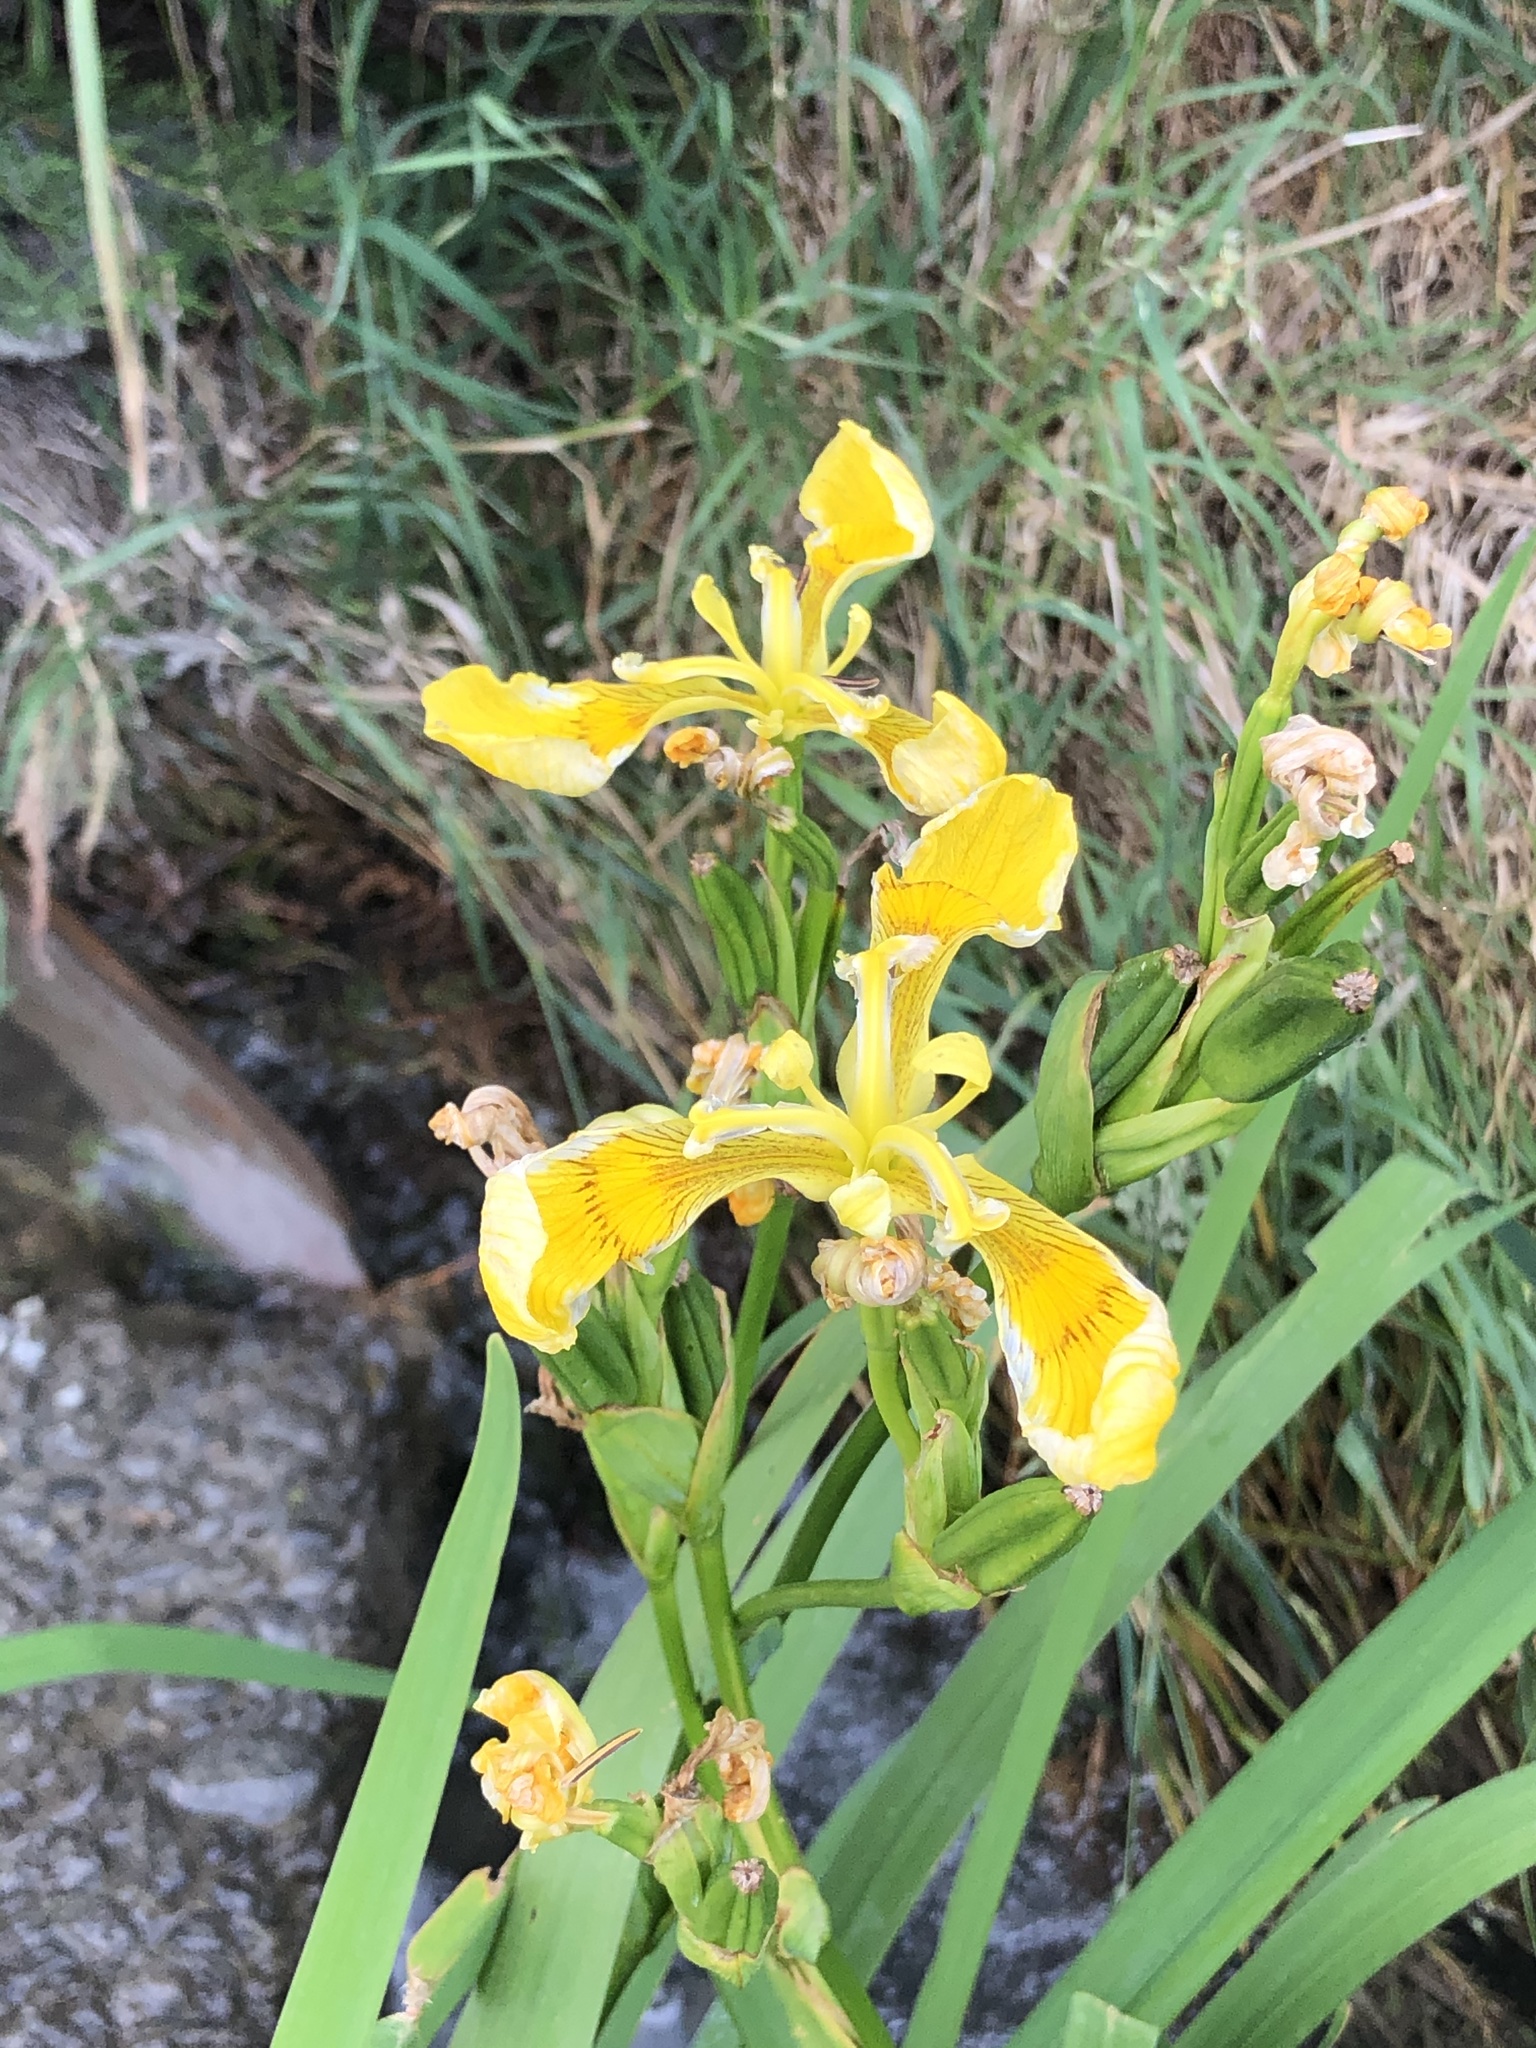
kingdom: Plantae
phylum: Tracheophyta
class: Liliopsida
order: Asparagales
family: Iridaceae
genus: Iris
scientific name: Iris pseudacorus
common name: Yellow flag
